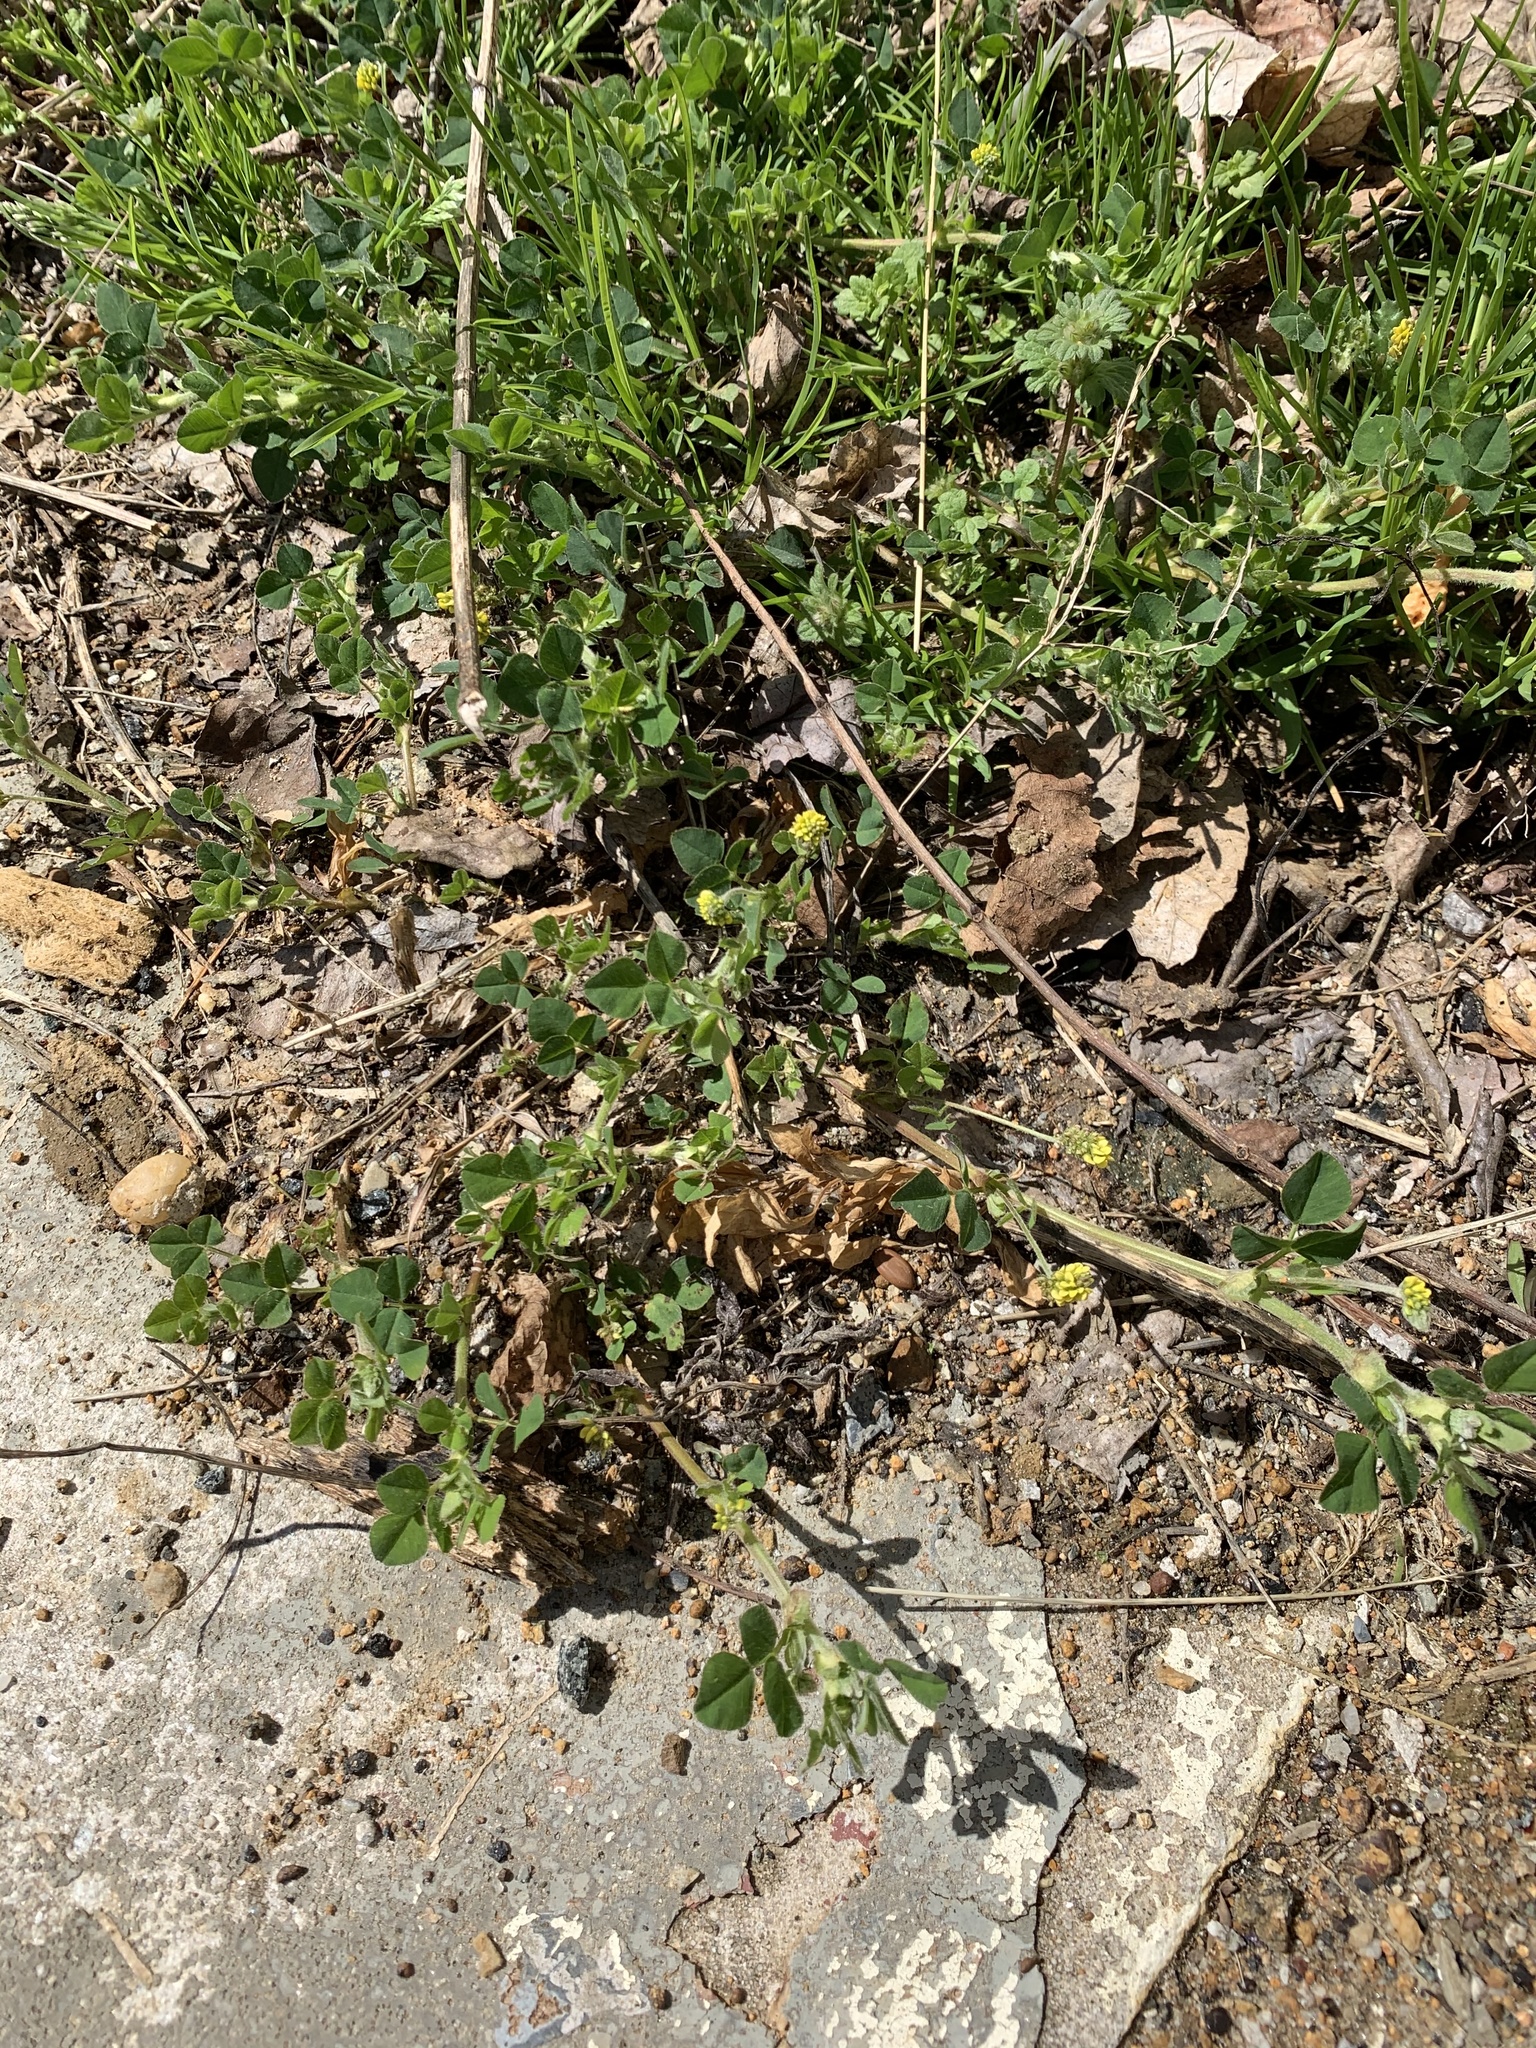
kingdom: Plantae
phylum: Tracheophyta
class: Magnoliopsida
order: Fabales
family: Fabaceae
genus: Medicago
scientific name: Medicago lupulina
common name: Black medick
